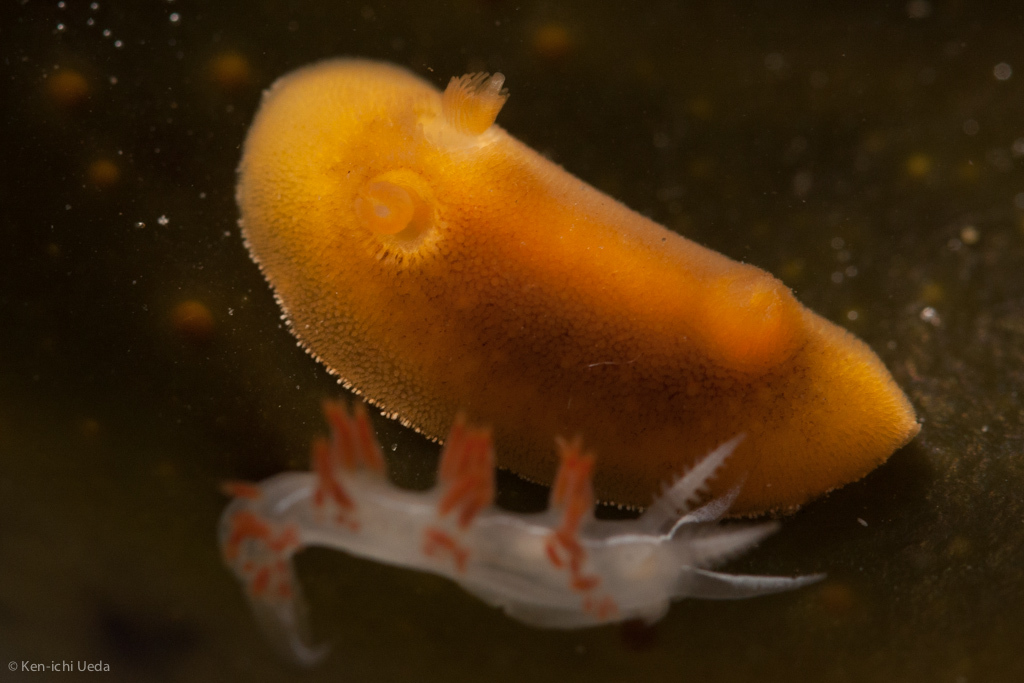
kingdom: Animalia
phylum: Mollusca
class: Gastropoda
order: Nudibranchia
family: Discodorididae
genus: Rostanga
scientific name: Rostanga pulchra
